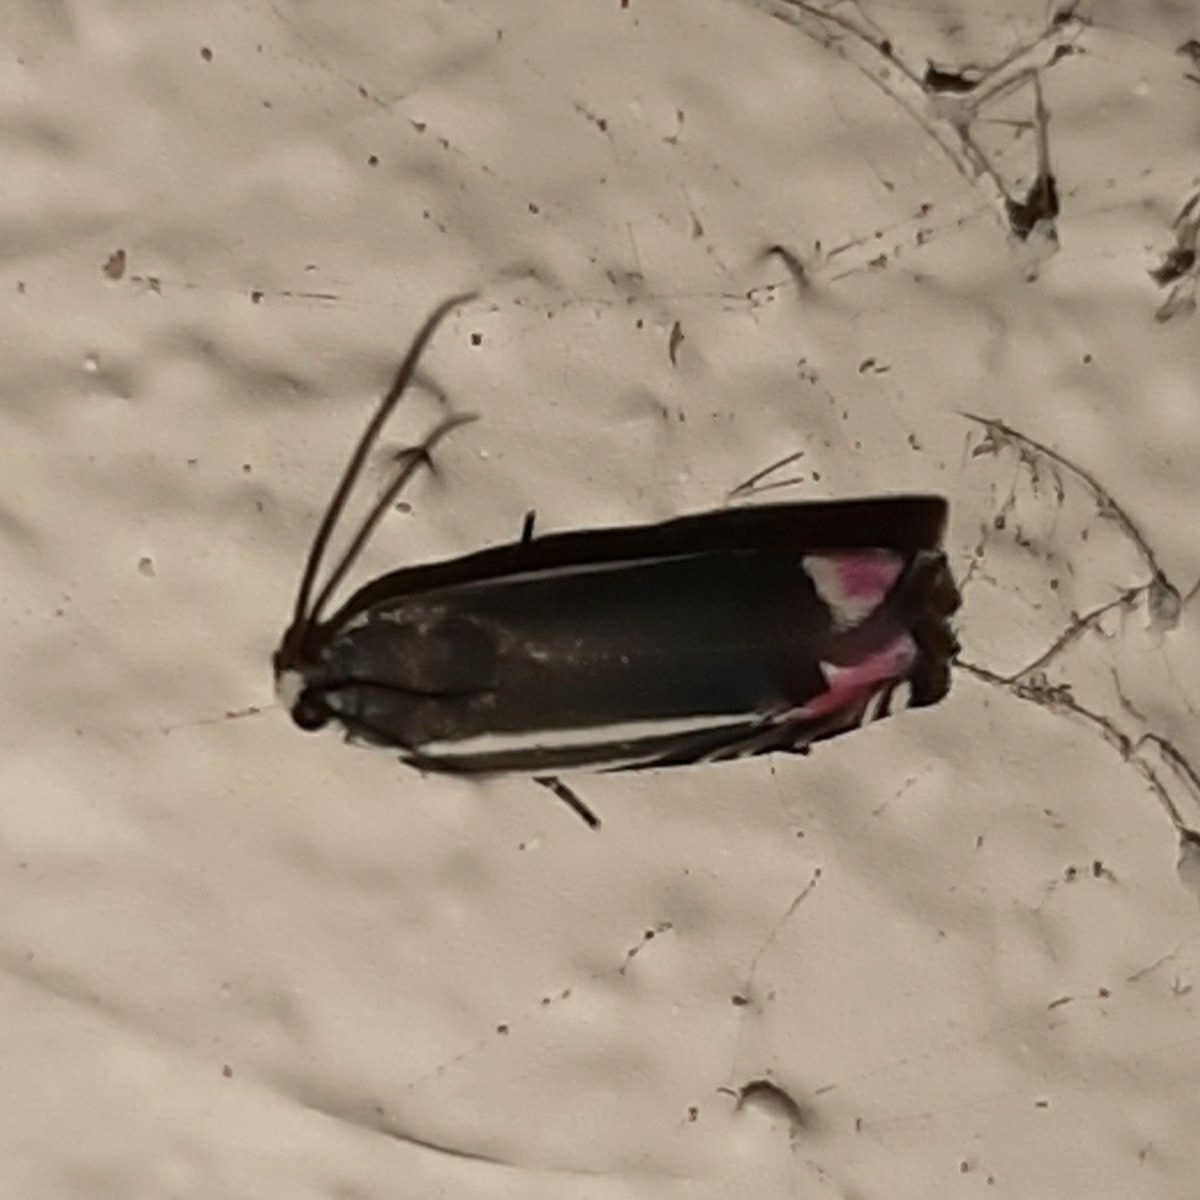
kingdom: Animalia
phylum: Arthropoda
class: Insecta
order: Lepidoptera
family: Tortricidae
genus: Cydia
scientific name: Cydia rhodaspis
